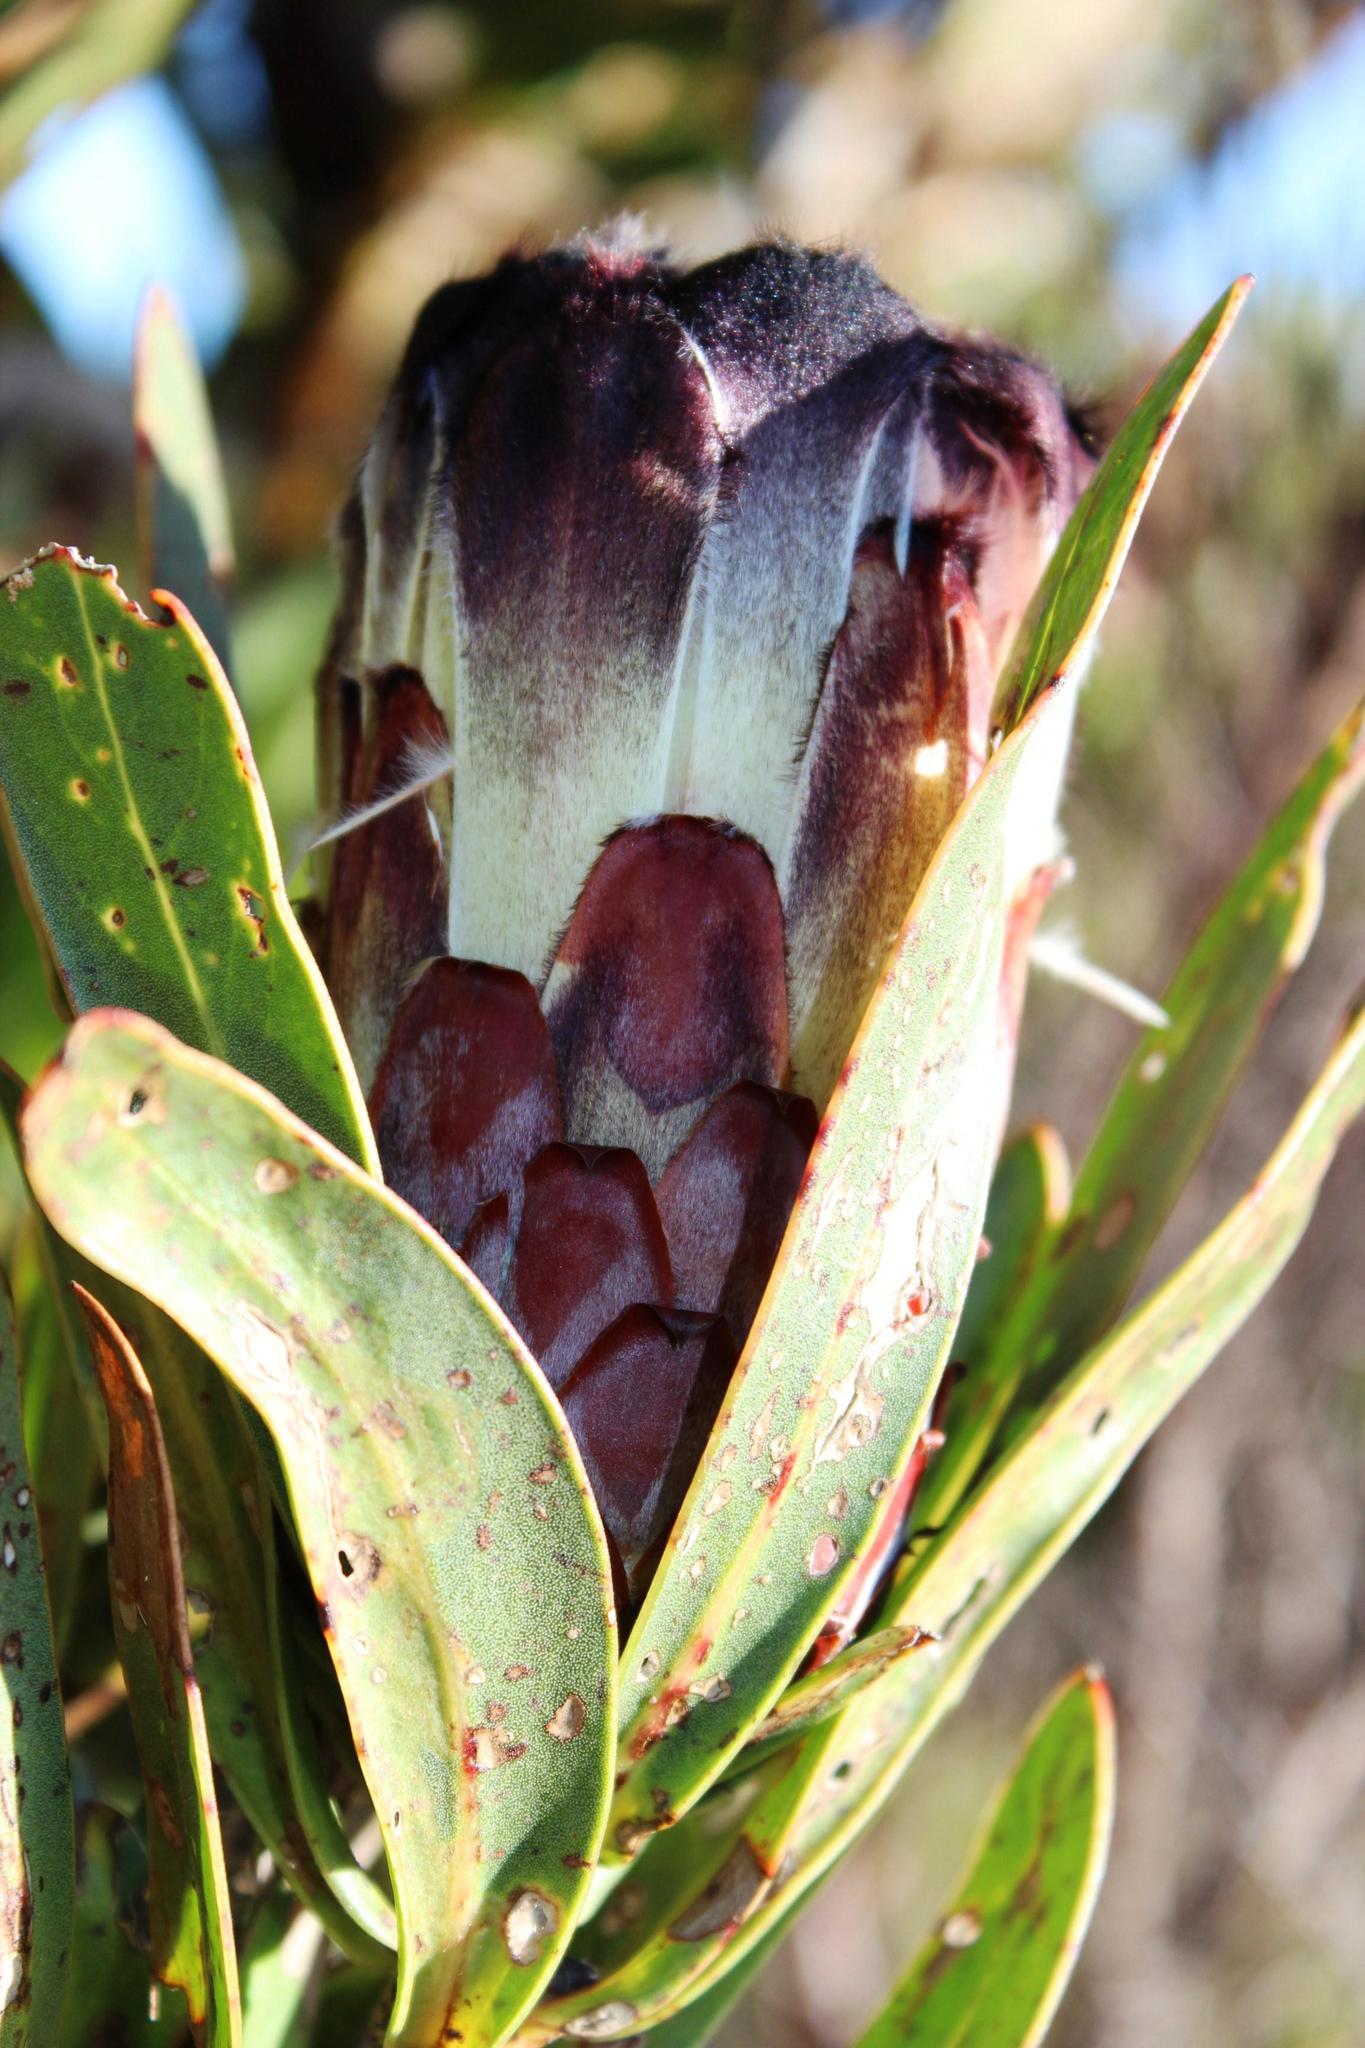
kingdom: Plantae
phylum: Tracheophyta
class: Magnoliopsida
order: Proteales
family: Proteaceae
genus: Protea
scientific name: Protea lepidocarpodendron
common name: Black-bearded protea
